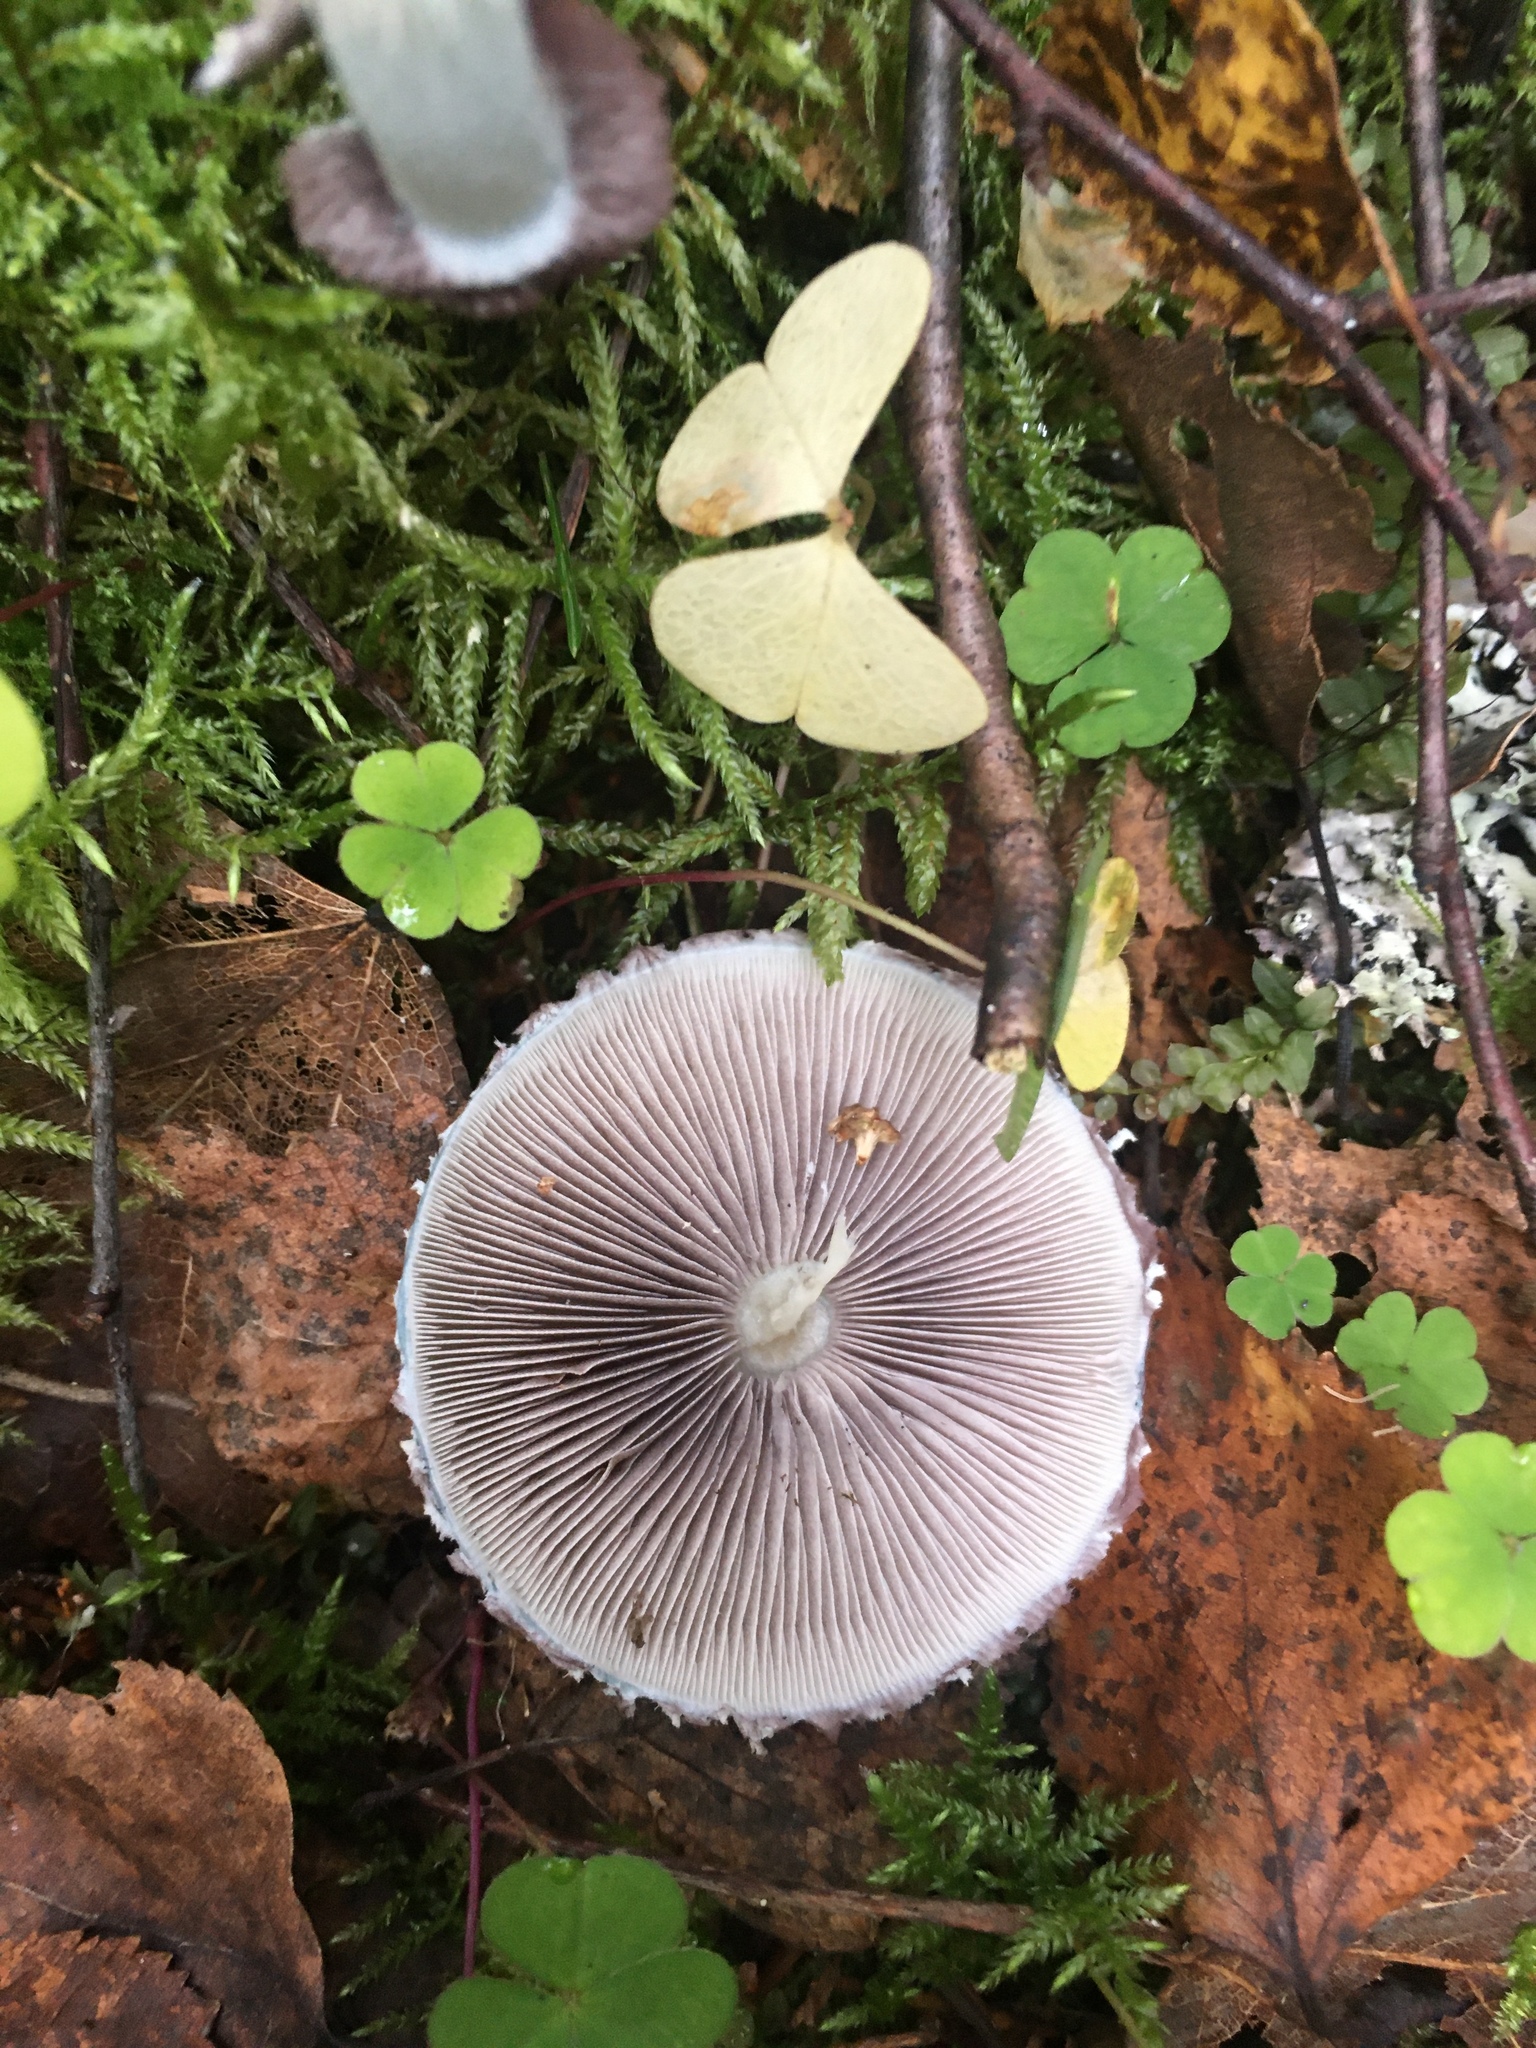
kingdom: Fungi
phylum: Basidiomycota
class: Agaricomycetes
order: Agaricales
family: Strophariaceae
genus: Stropharia
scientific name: Stropharia aeruginosa
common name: Verdigris roundhead
